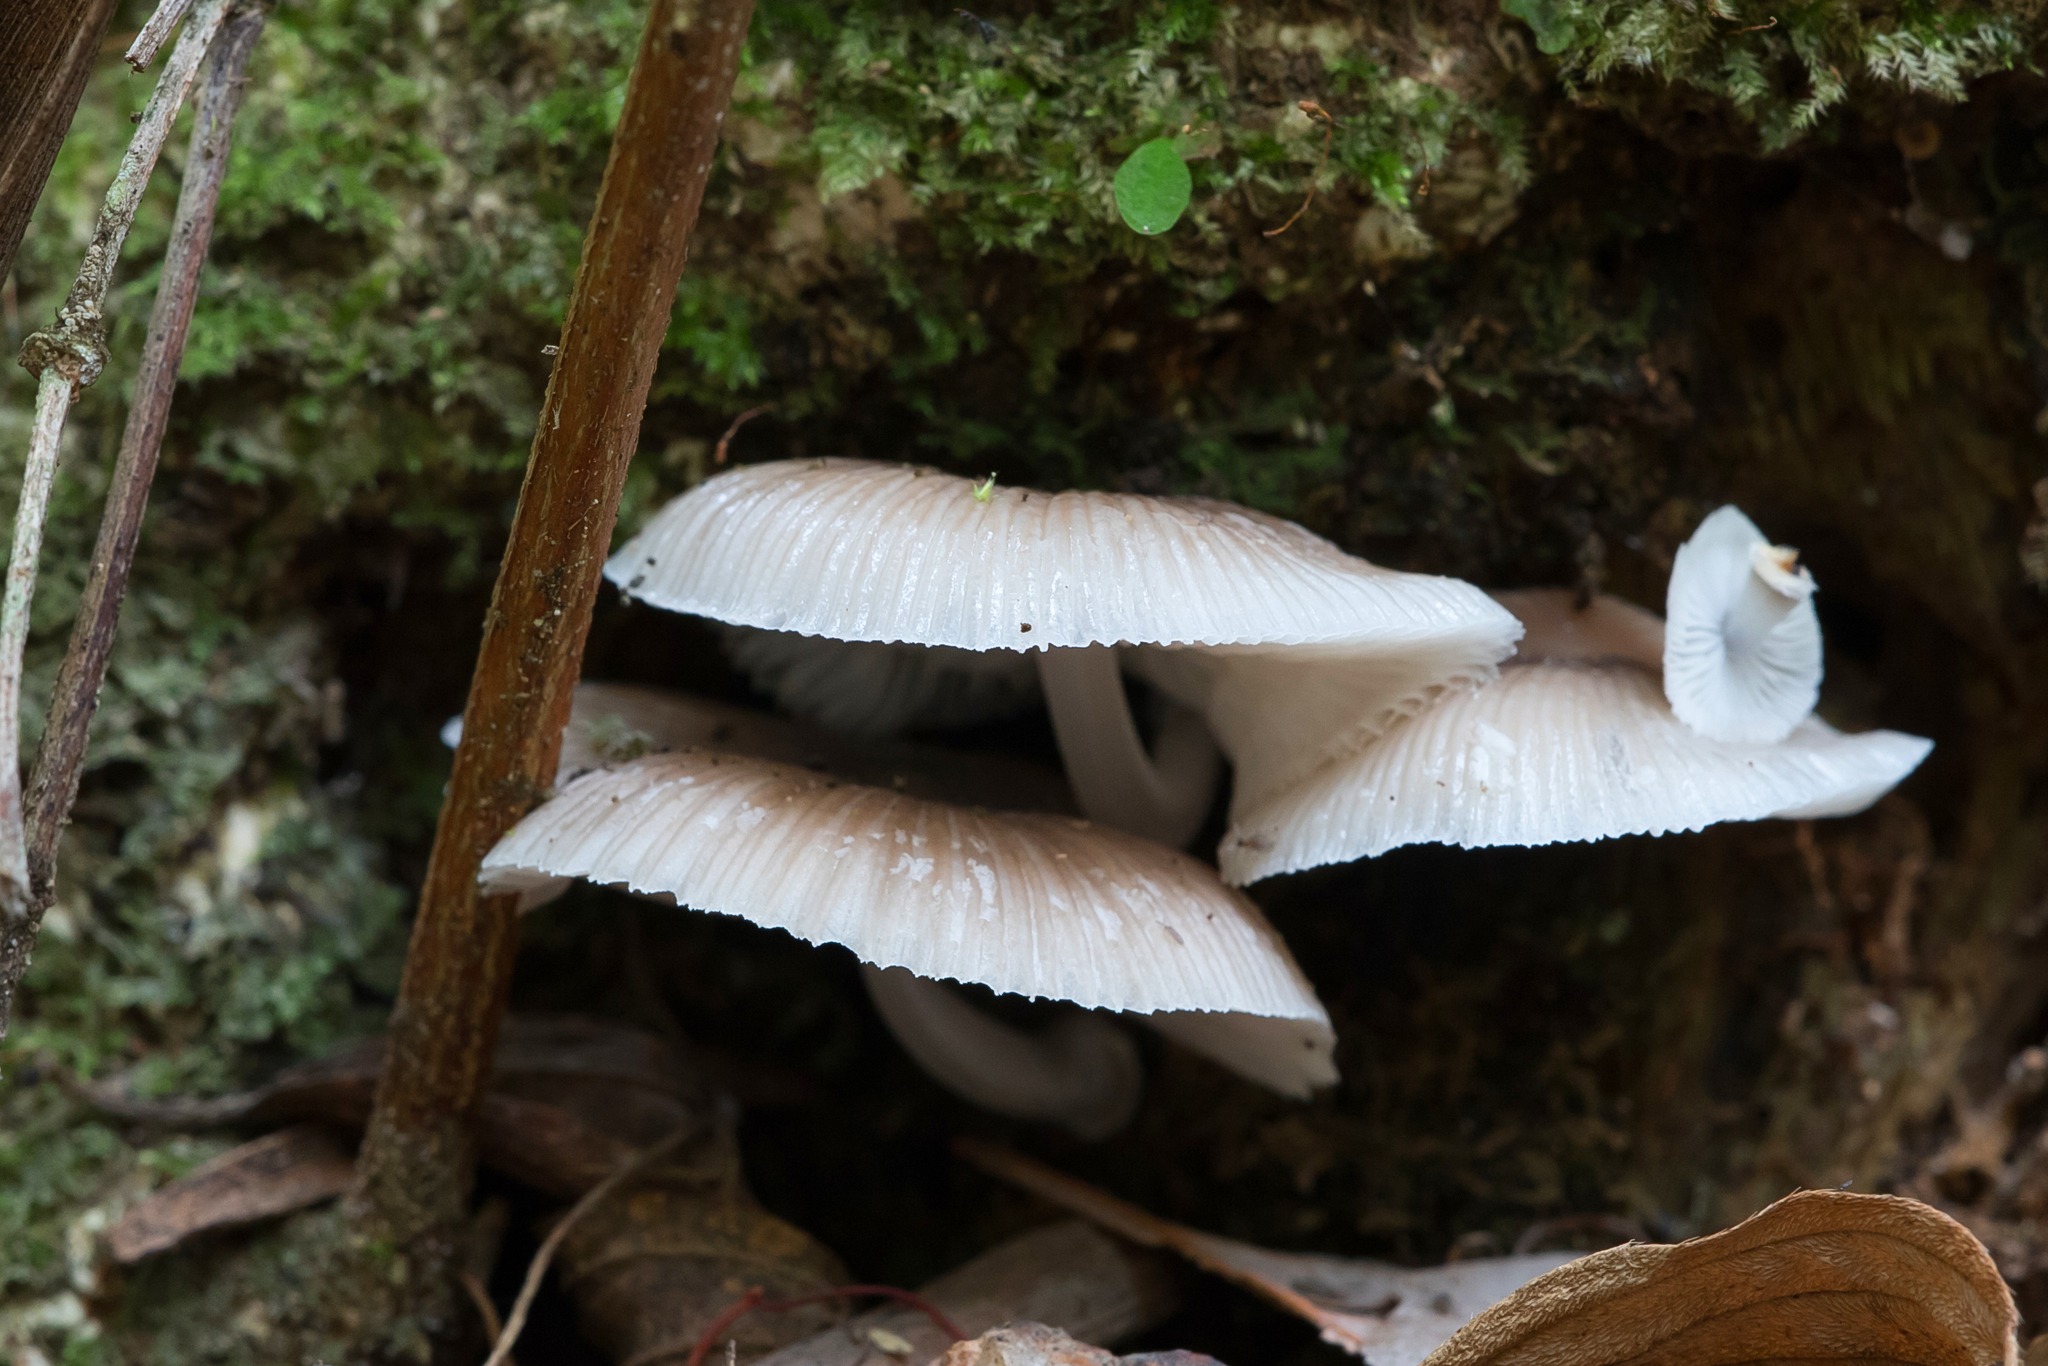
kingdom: Fungi
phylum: Basidiomycota
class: Agaricomycetes
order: Agaricales
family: Mycenaceae
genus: Mycena
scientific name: Mycena chlorophos
